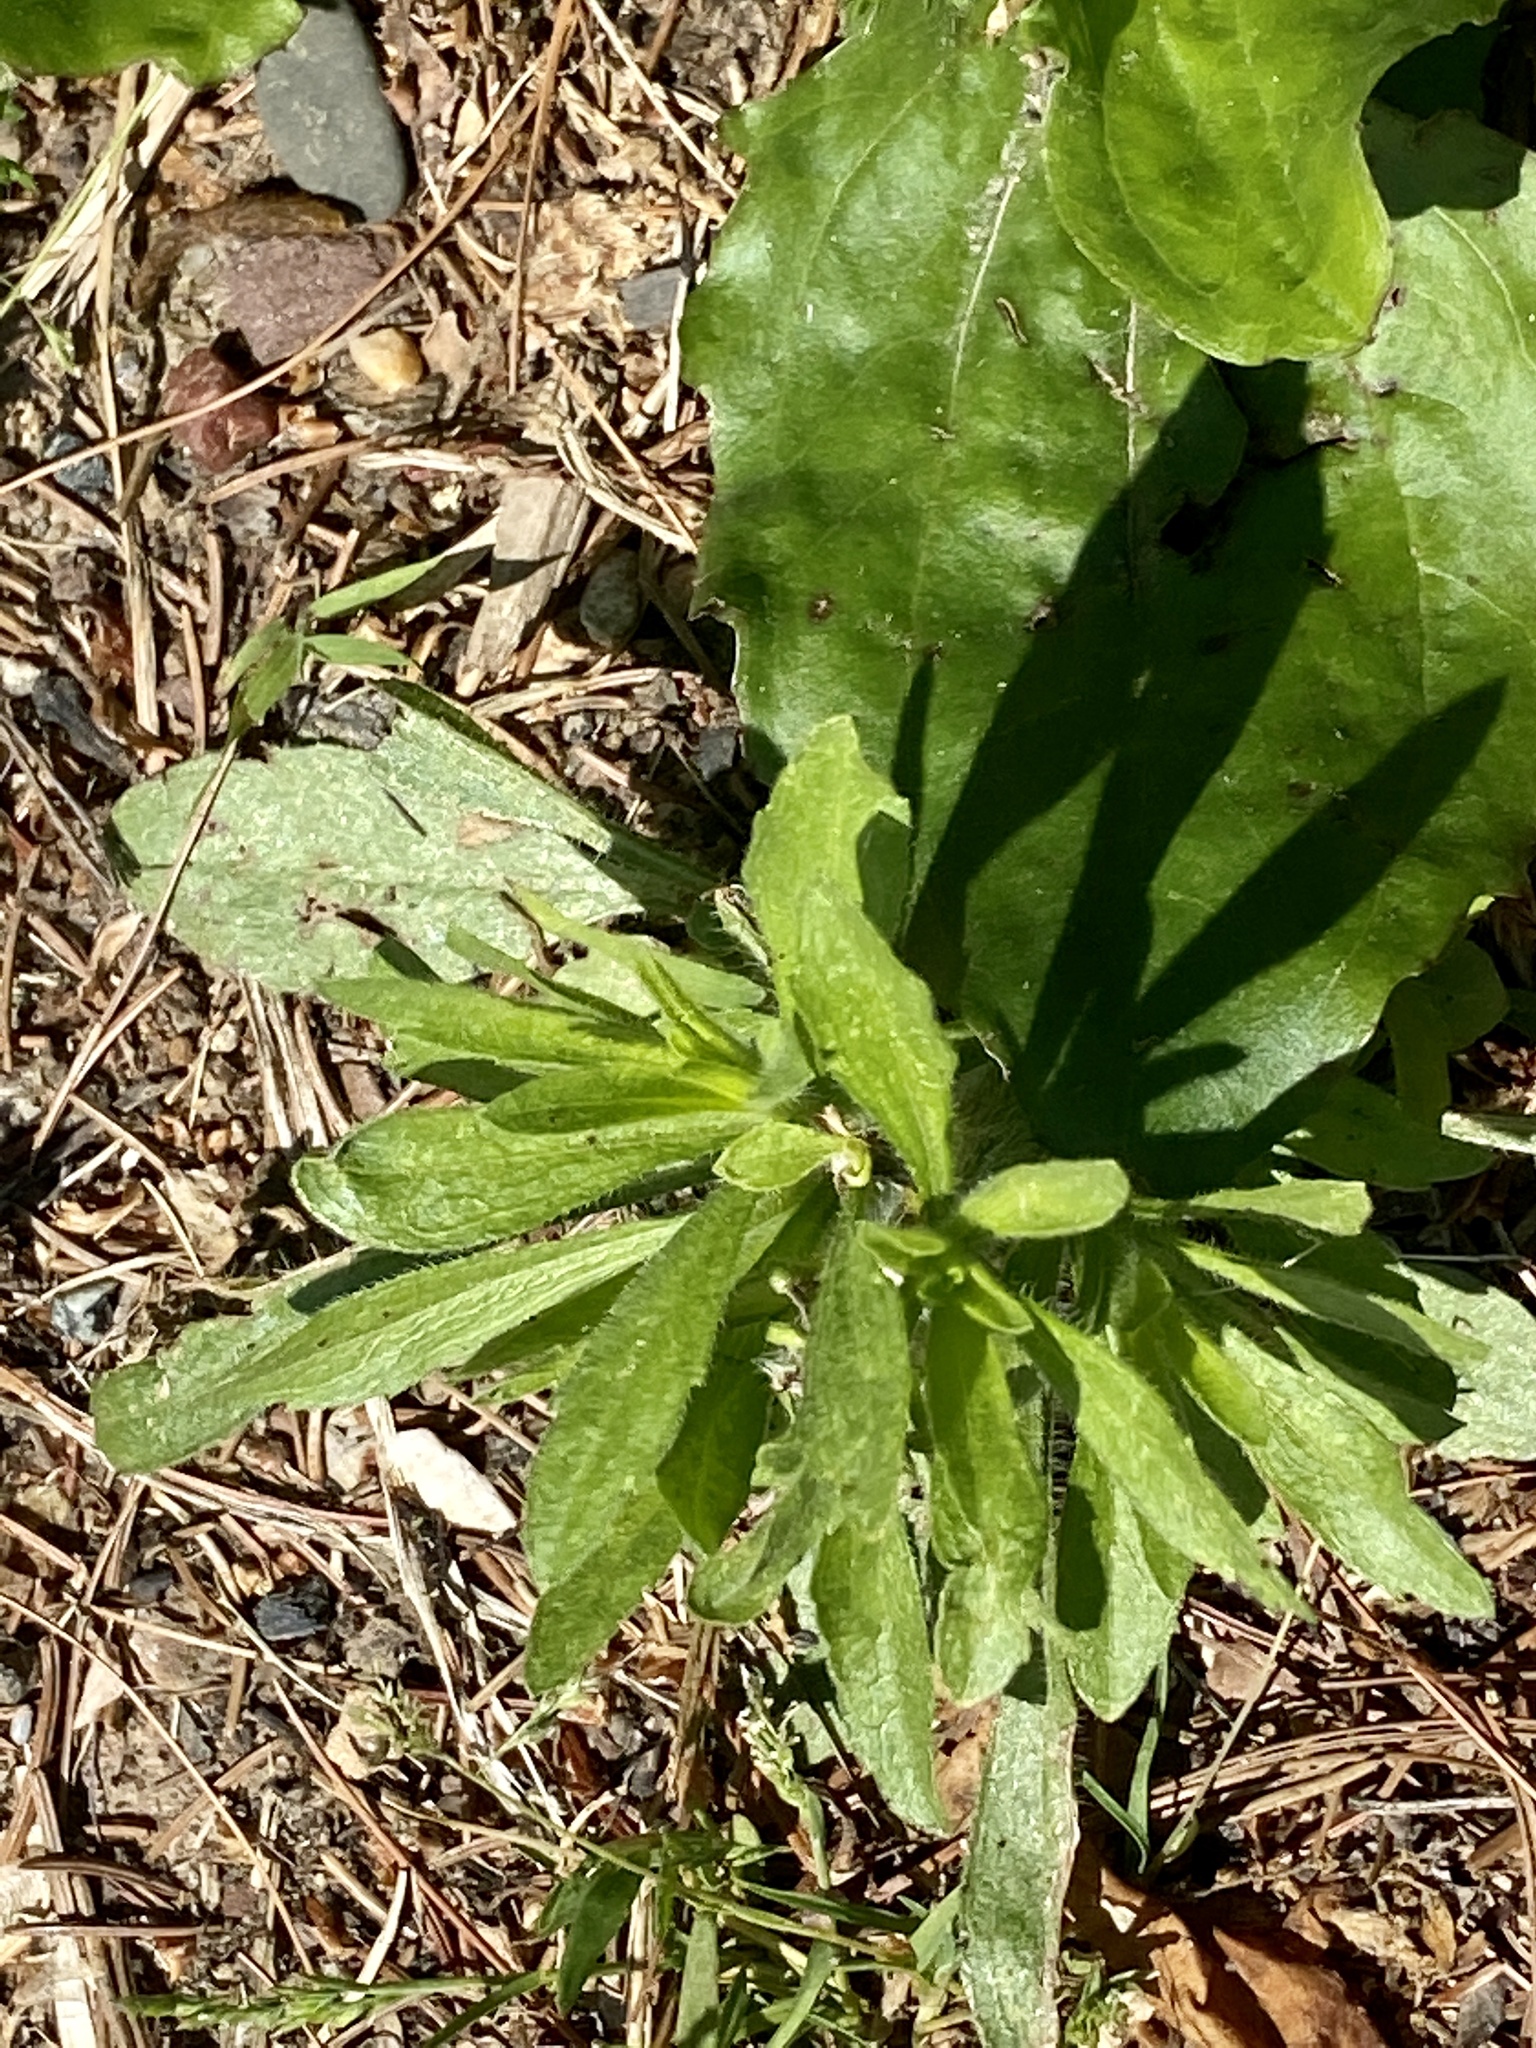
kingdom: Plantae
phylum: Tracheophyta
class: Magnoliopsida
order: Asterales
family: Asteraceae
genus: Erigeron
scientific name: Erigeron canadensis
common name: Canadian fleabane
